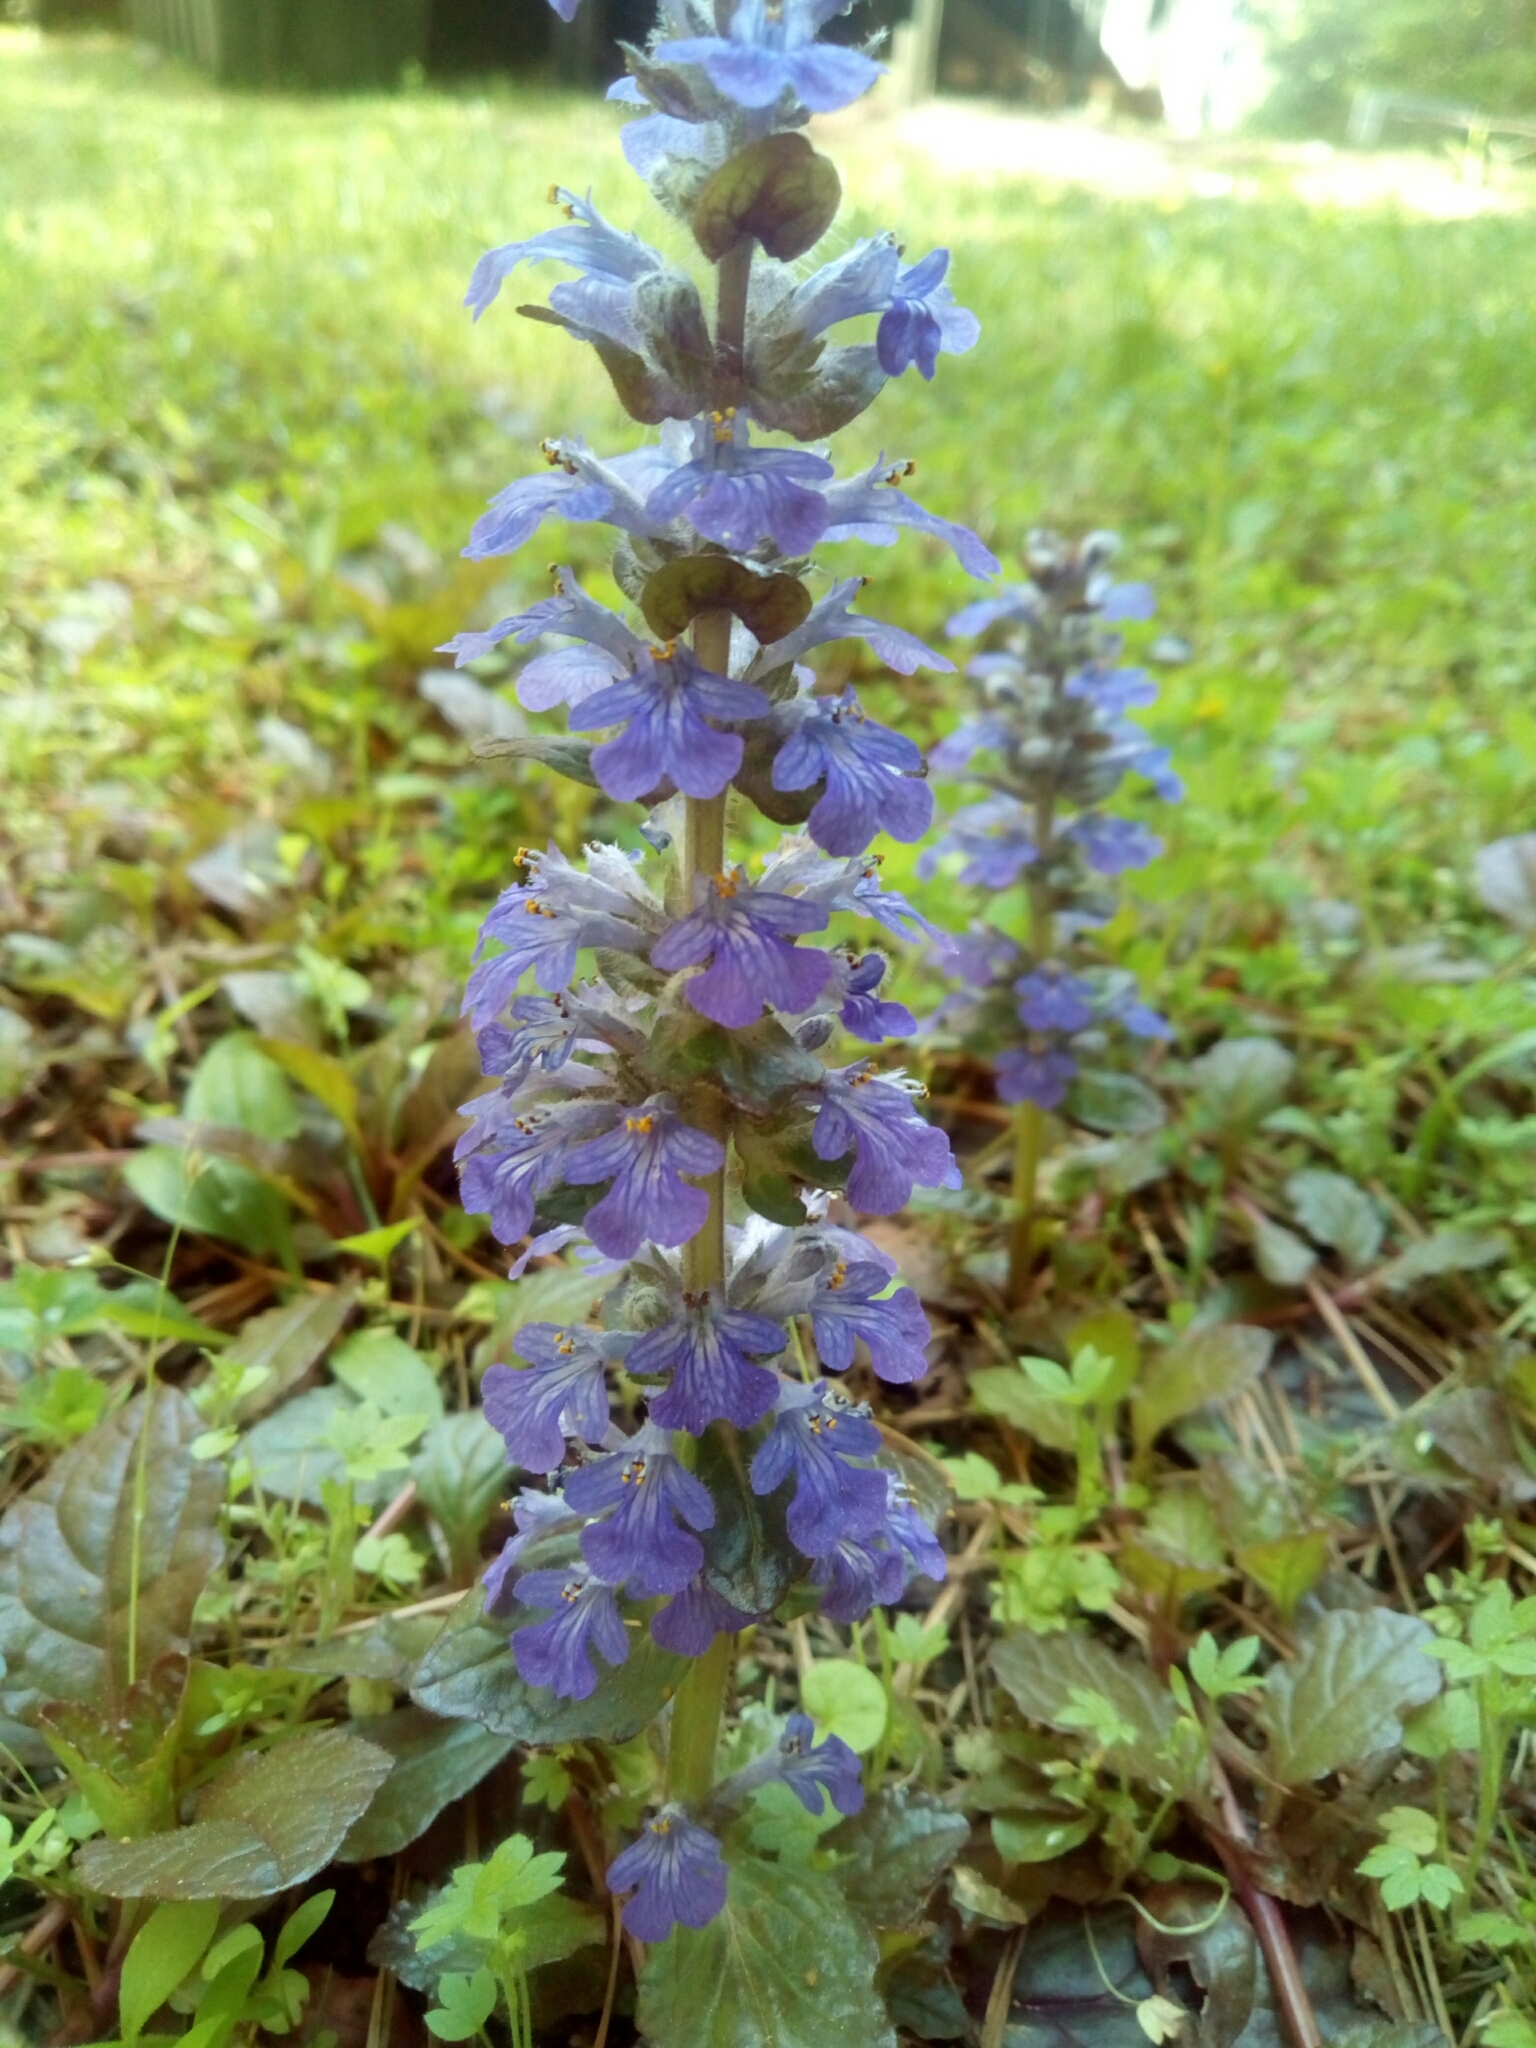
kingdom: Plantae
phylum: Tracheophyta
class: Magnoliopsida
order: Lamiales
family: Lamiaceae
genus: Ajuga
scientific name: Ajuga reptans
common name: Bugle
